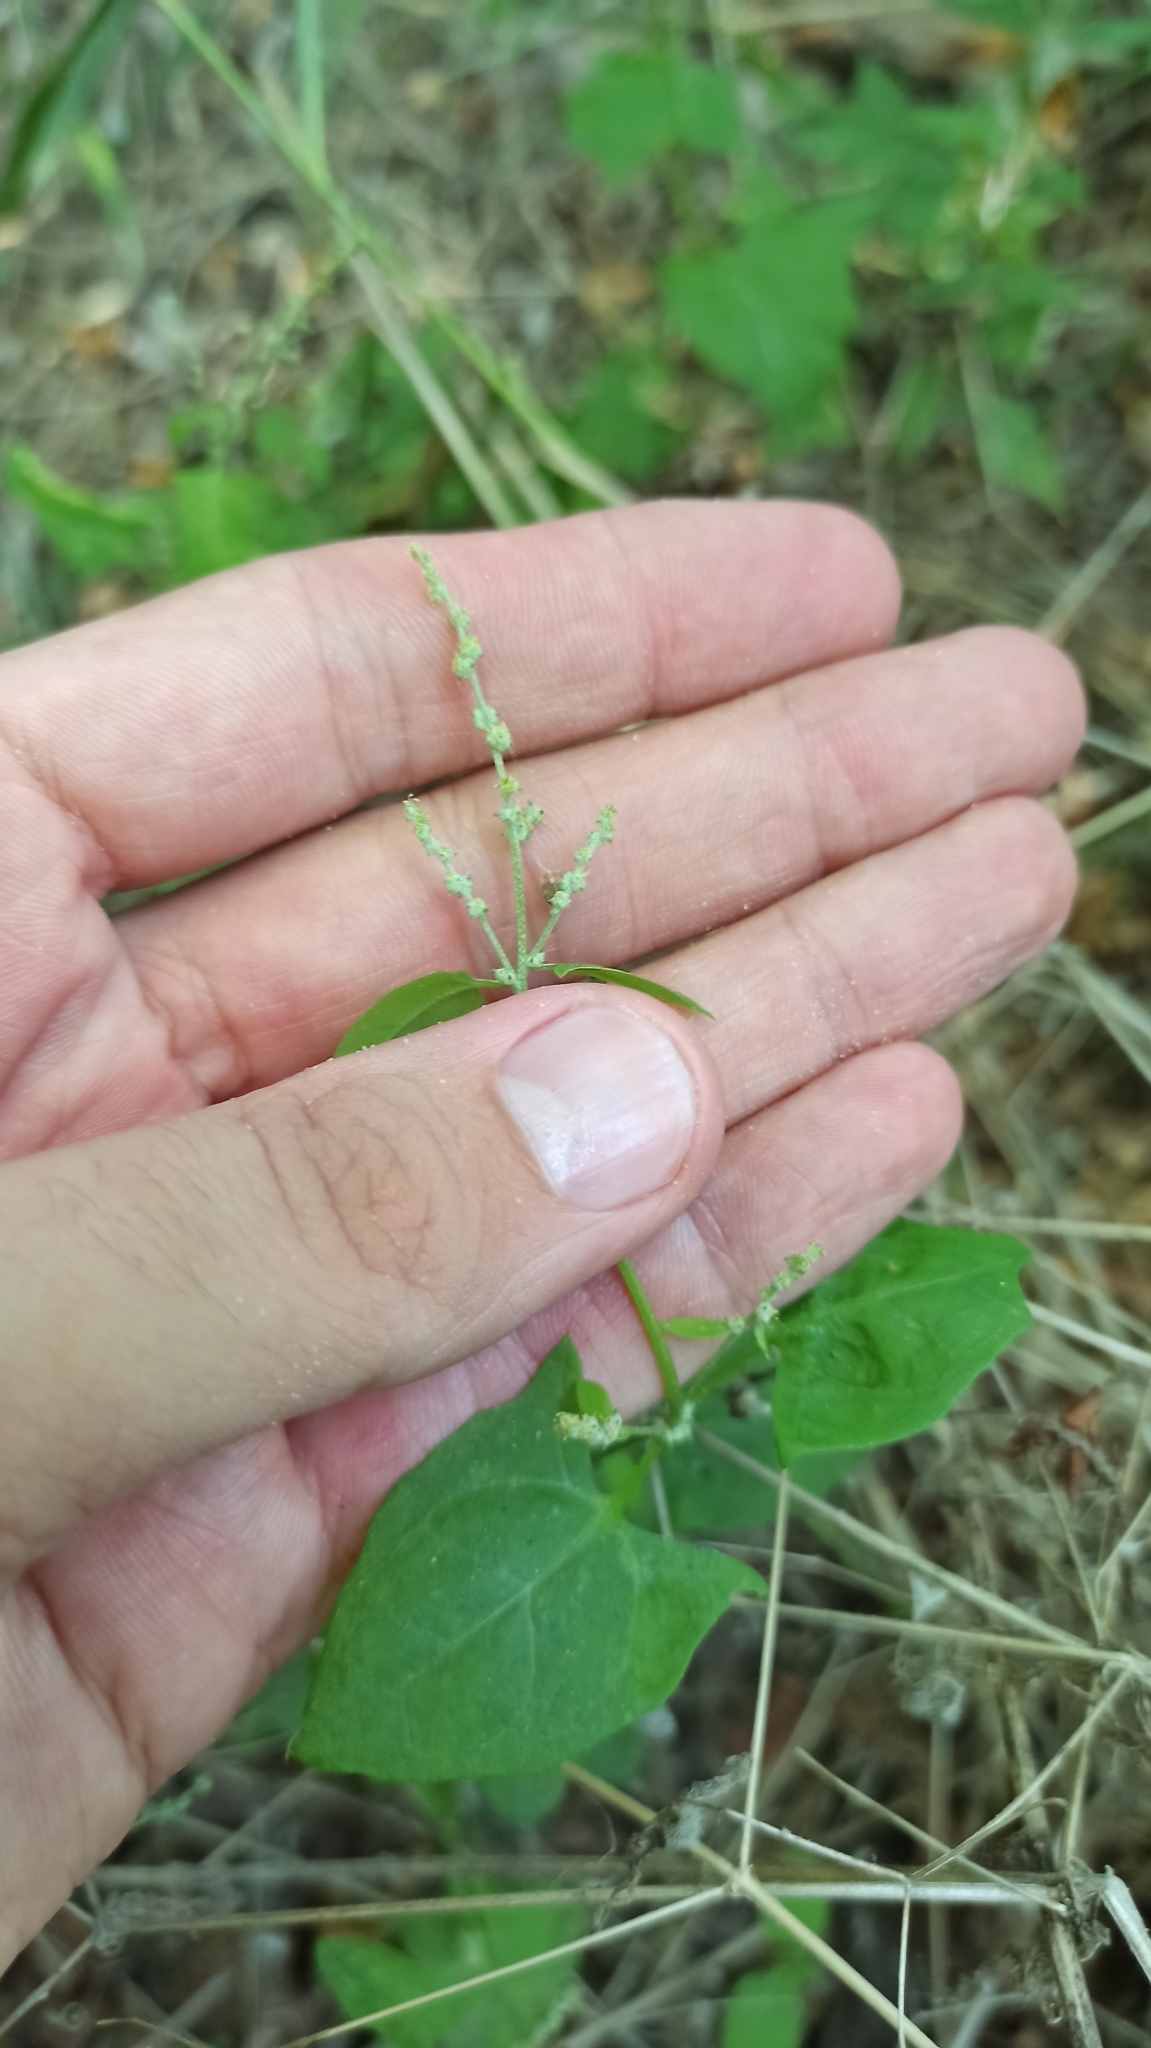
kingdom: Plantae
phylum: Tracheophyta
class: Magnoliopsida
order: Caryophyllales
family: Amaranthaceae
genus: Atriplex
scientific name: Atriplex prostrata
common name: Spear-leaved orache
